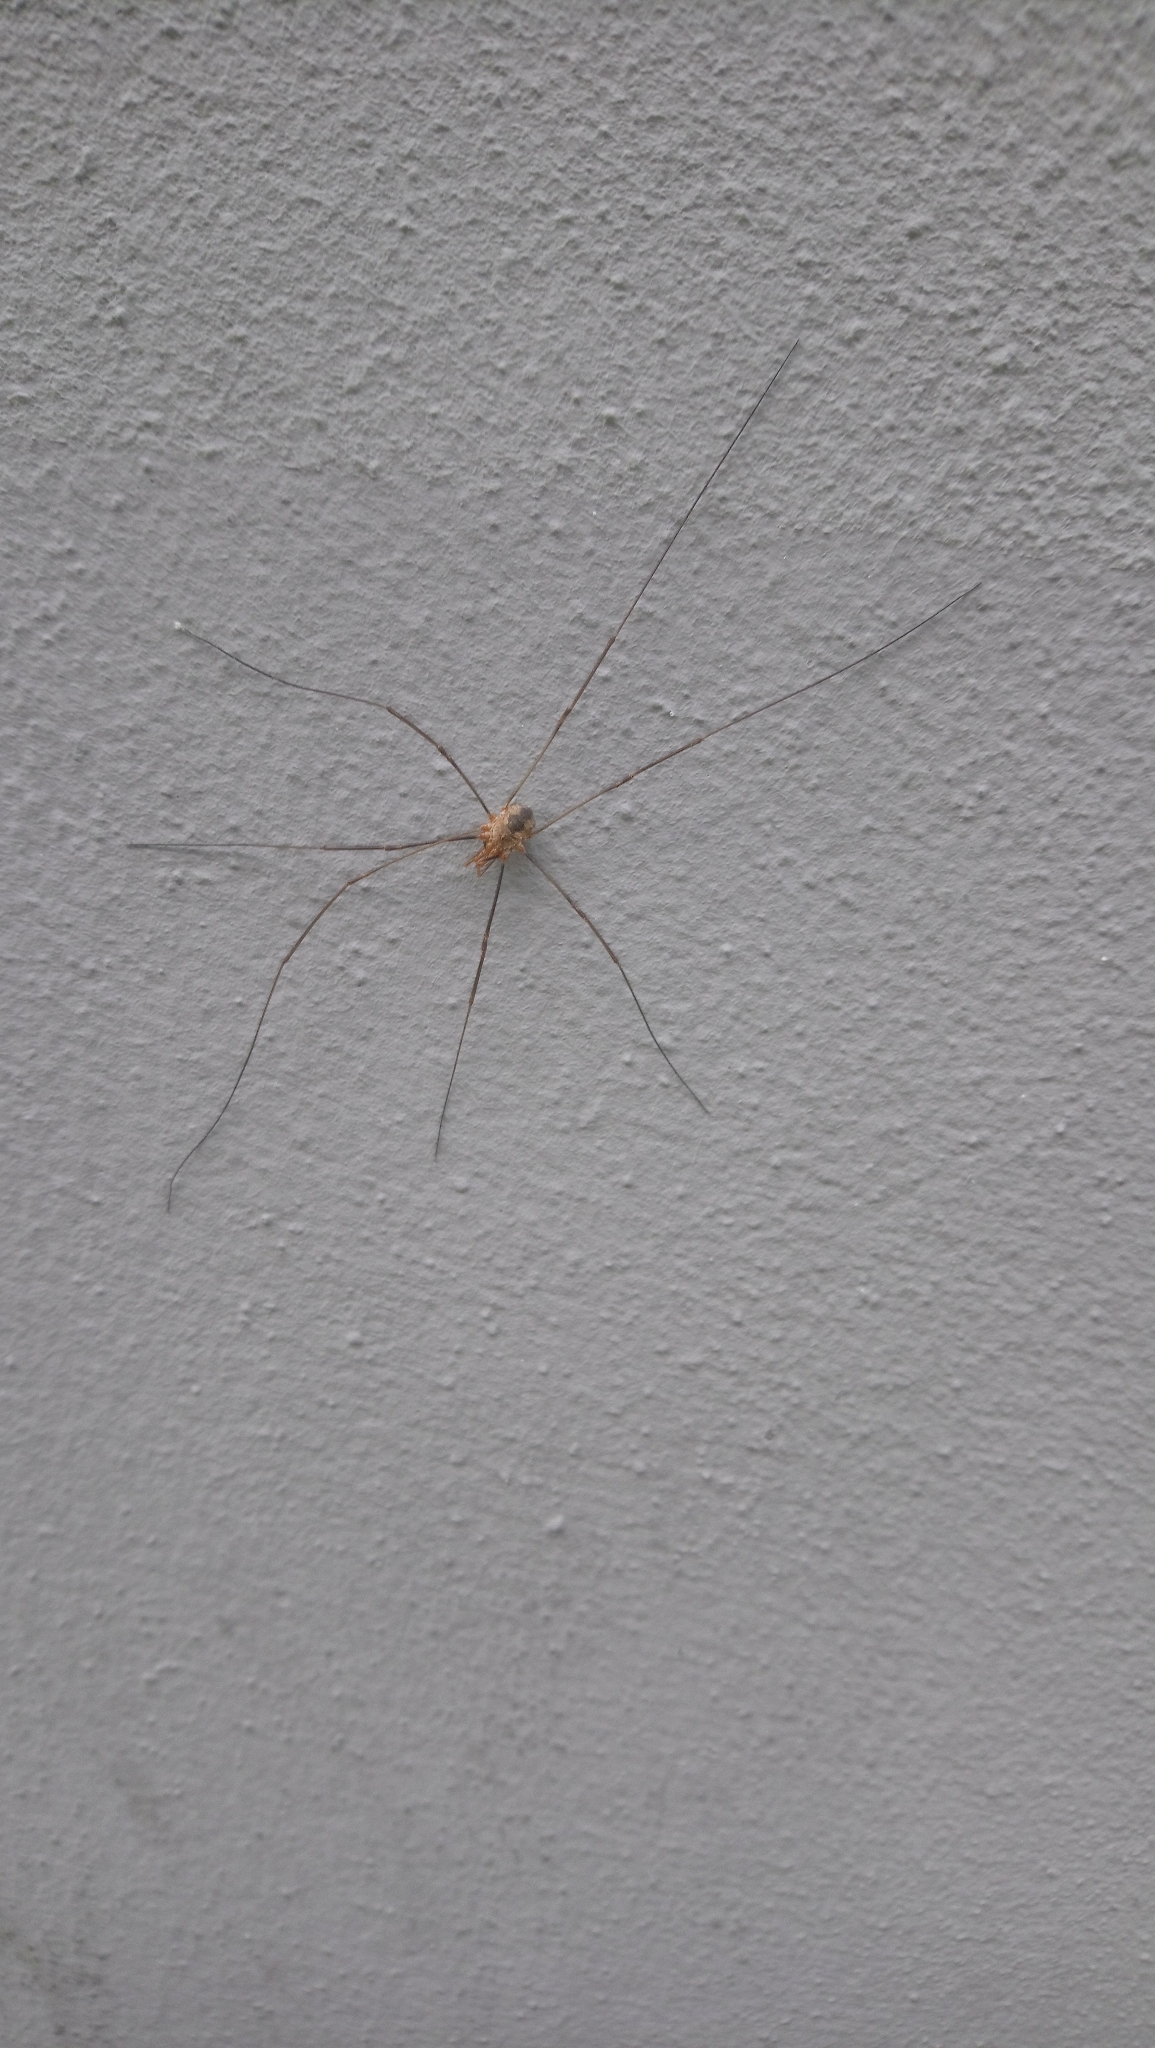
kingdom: Animalia
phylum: Arthropoda
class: Arachnida
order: Opiliones
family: Phalangiidae
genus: Phalangium
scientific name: Phalangium opilio
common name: Daddy longleg
